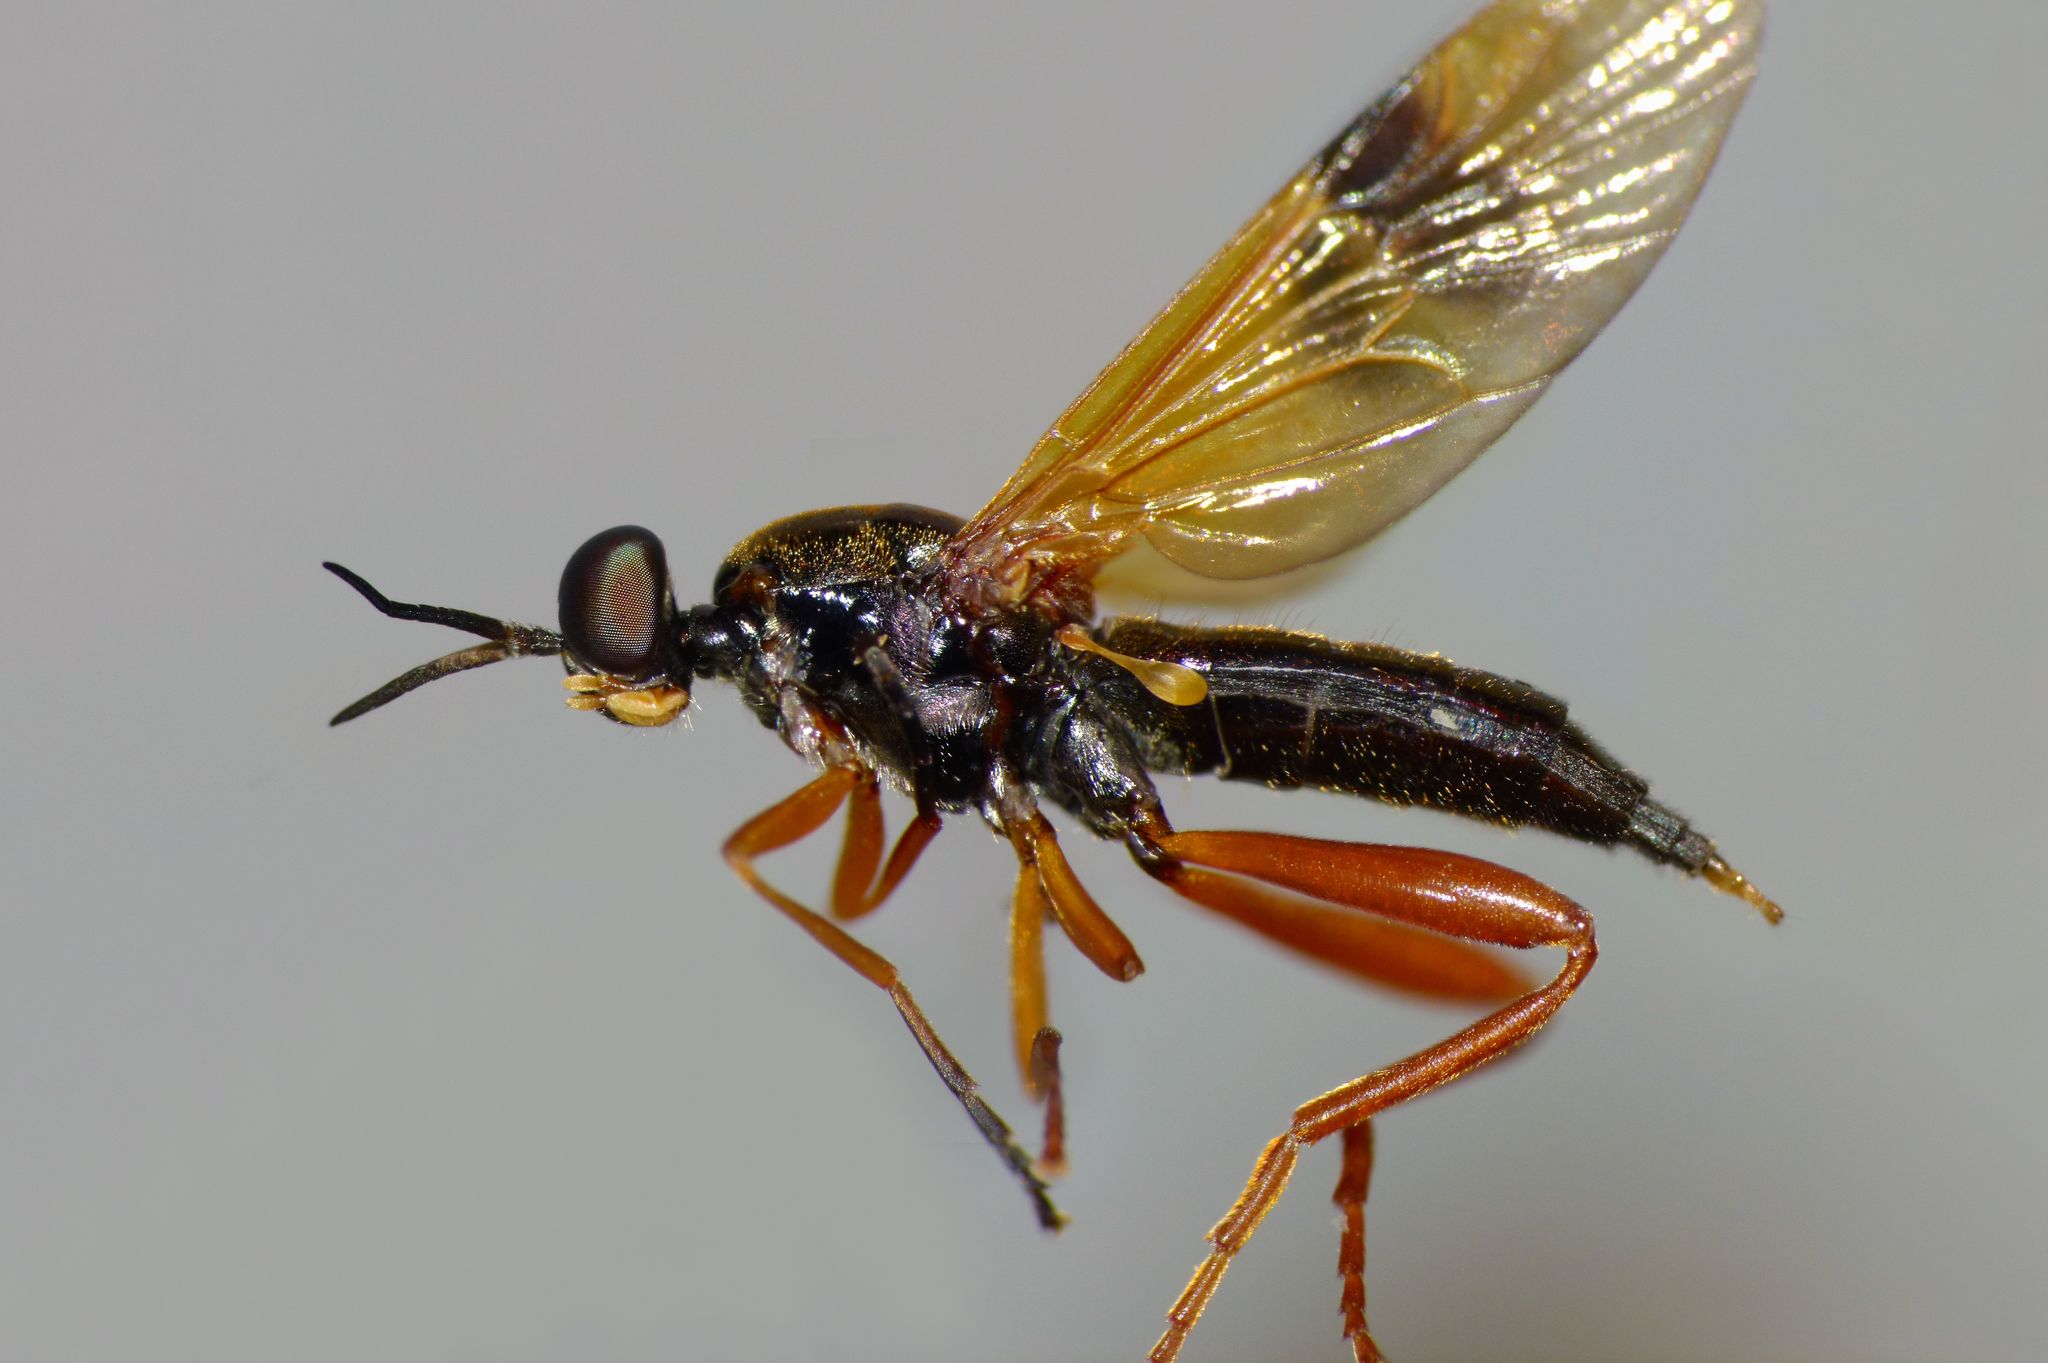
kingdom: Animalia
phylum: Arthropoda
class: Insecta
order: Diptera
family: Stratiomyidae
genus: Benhamyia
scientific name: Benhamyia apicalis
